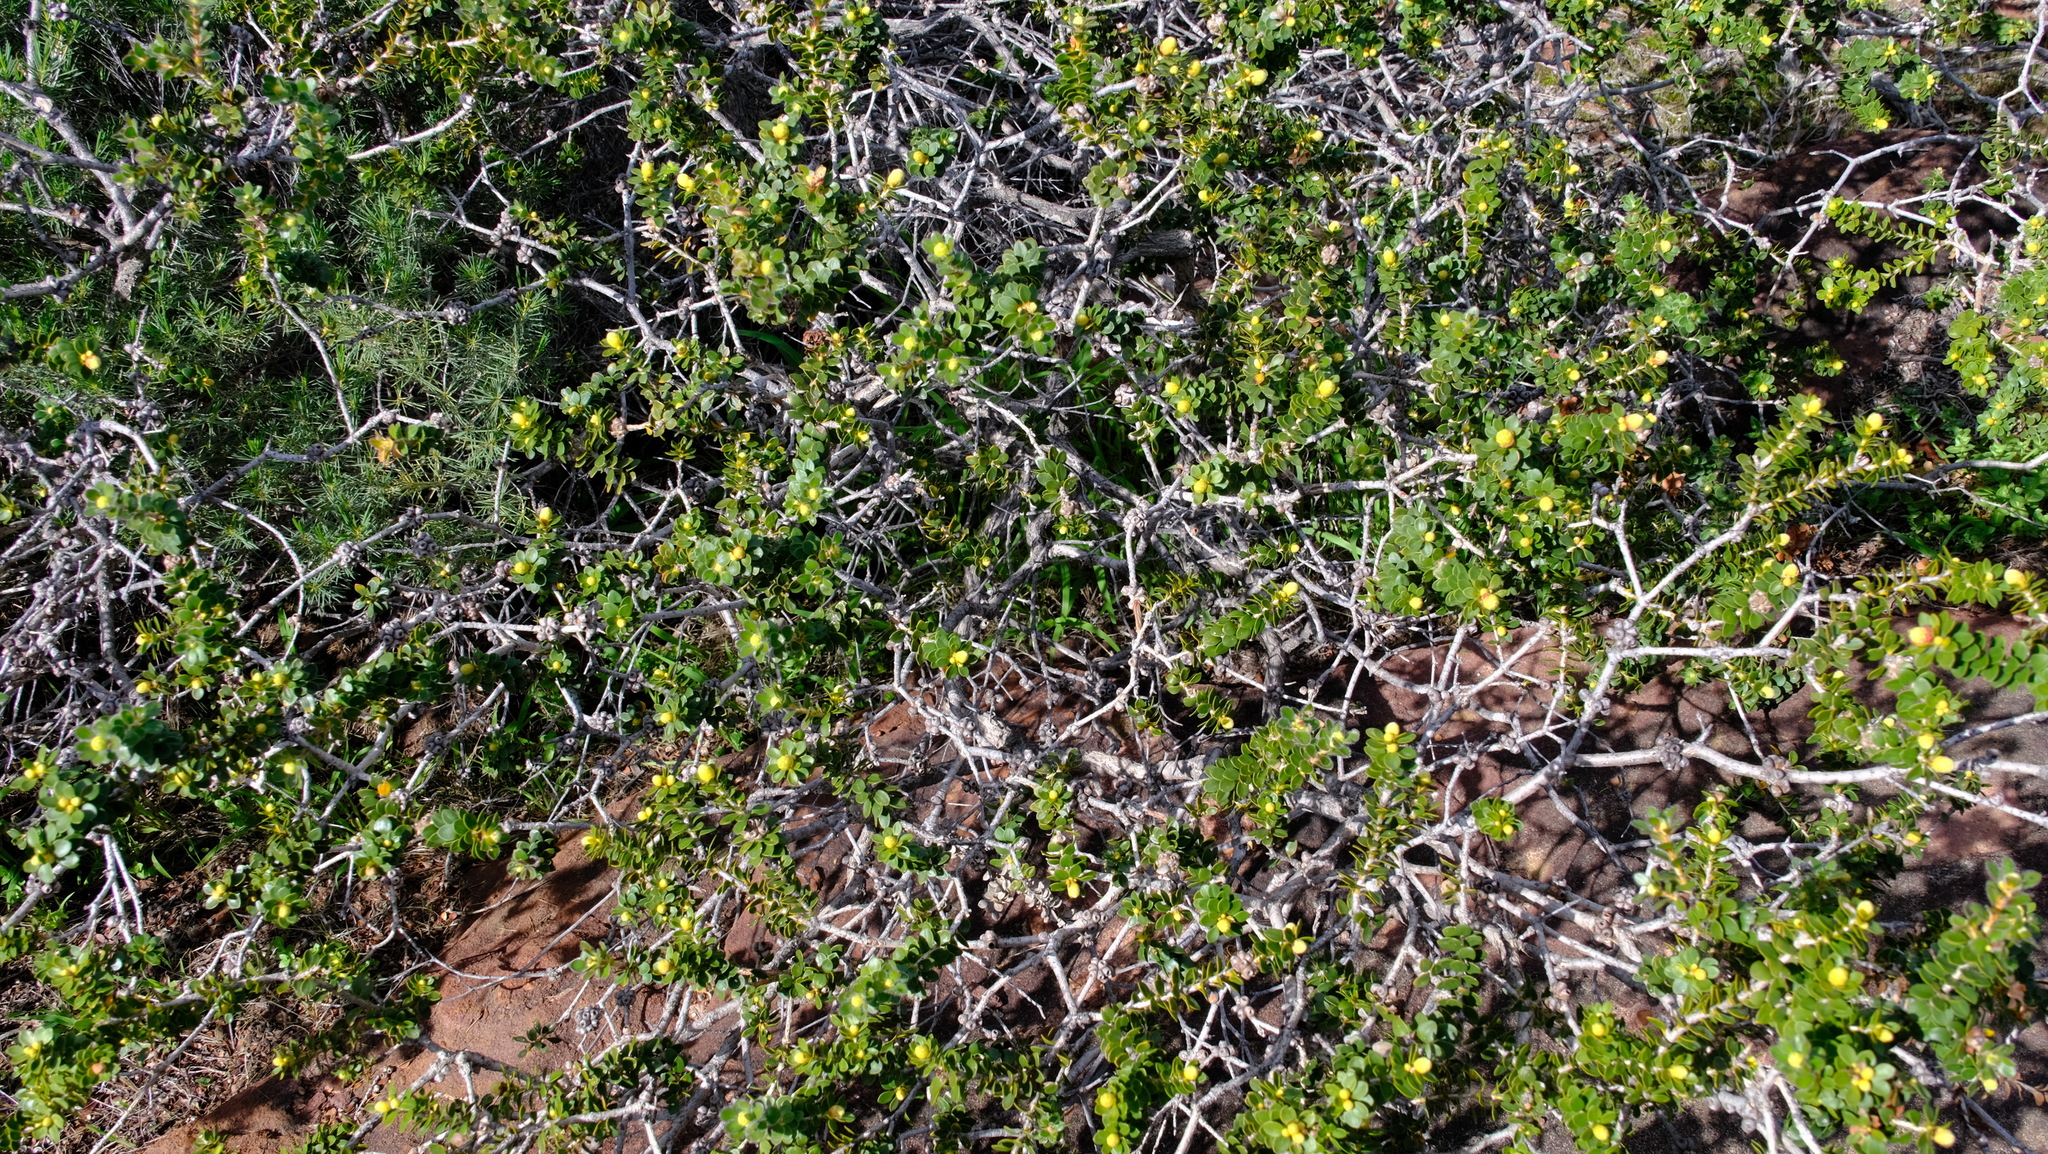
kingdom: Plantae
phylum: Tracheophyta
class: Magnoliopsida
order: Myrtales
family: Myrtaceae
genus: Melaleuca
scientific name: Melaleuca megacephala
